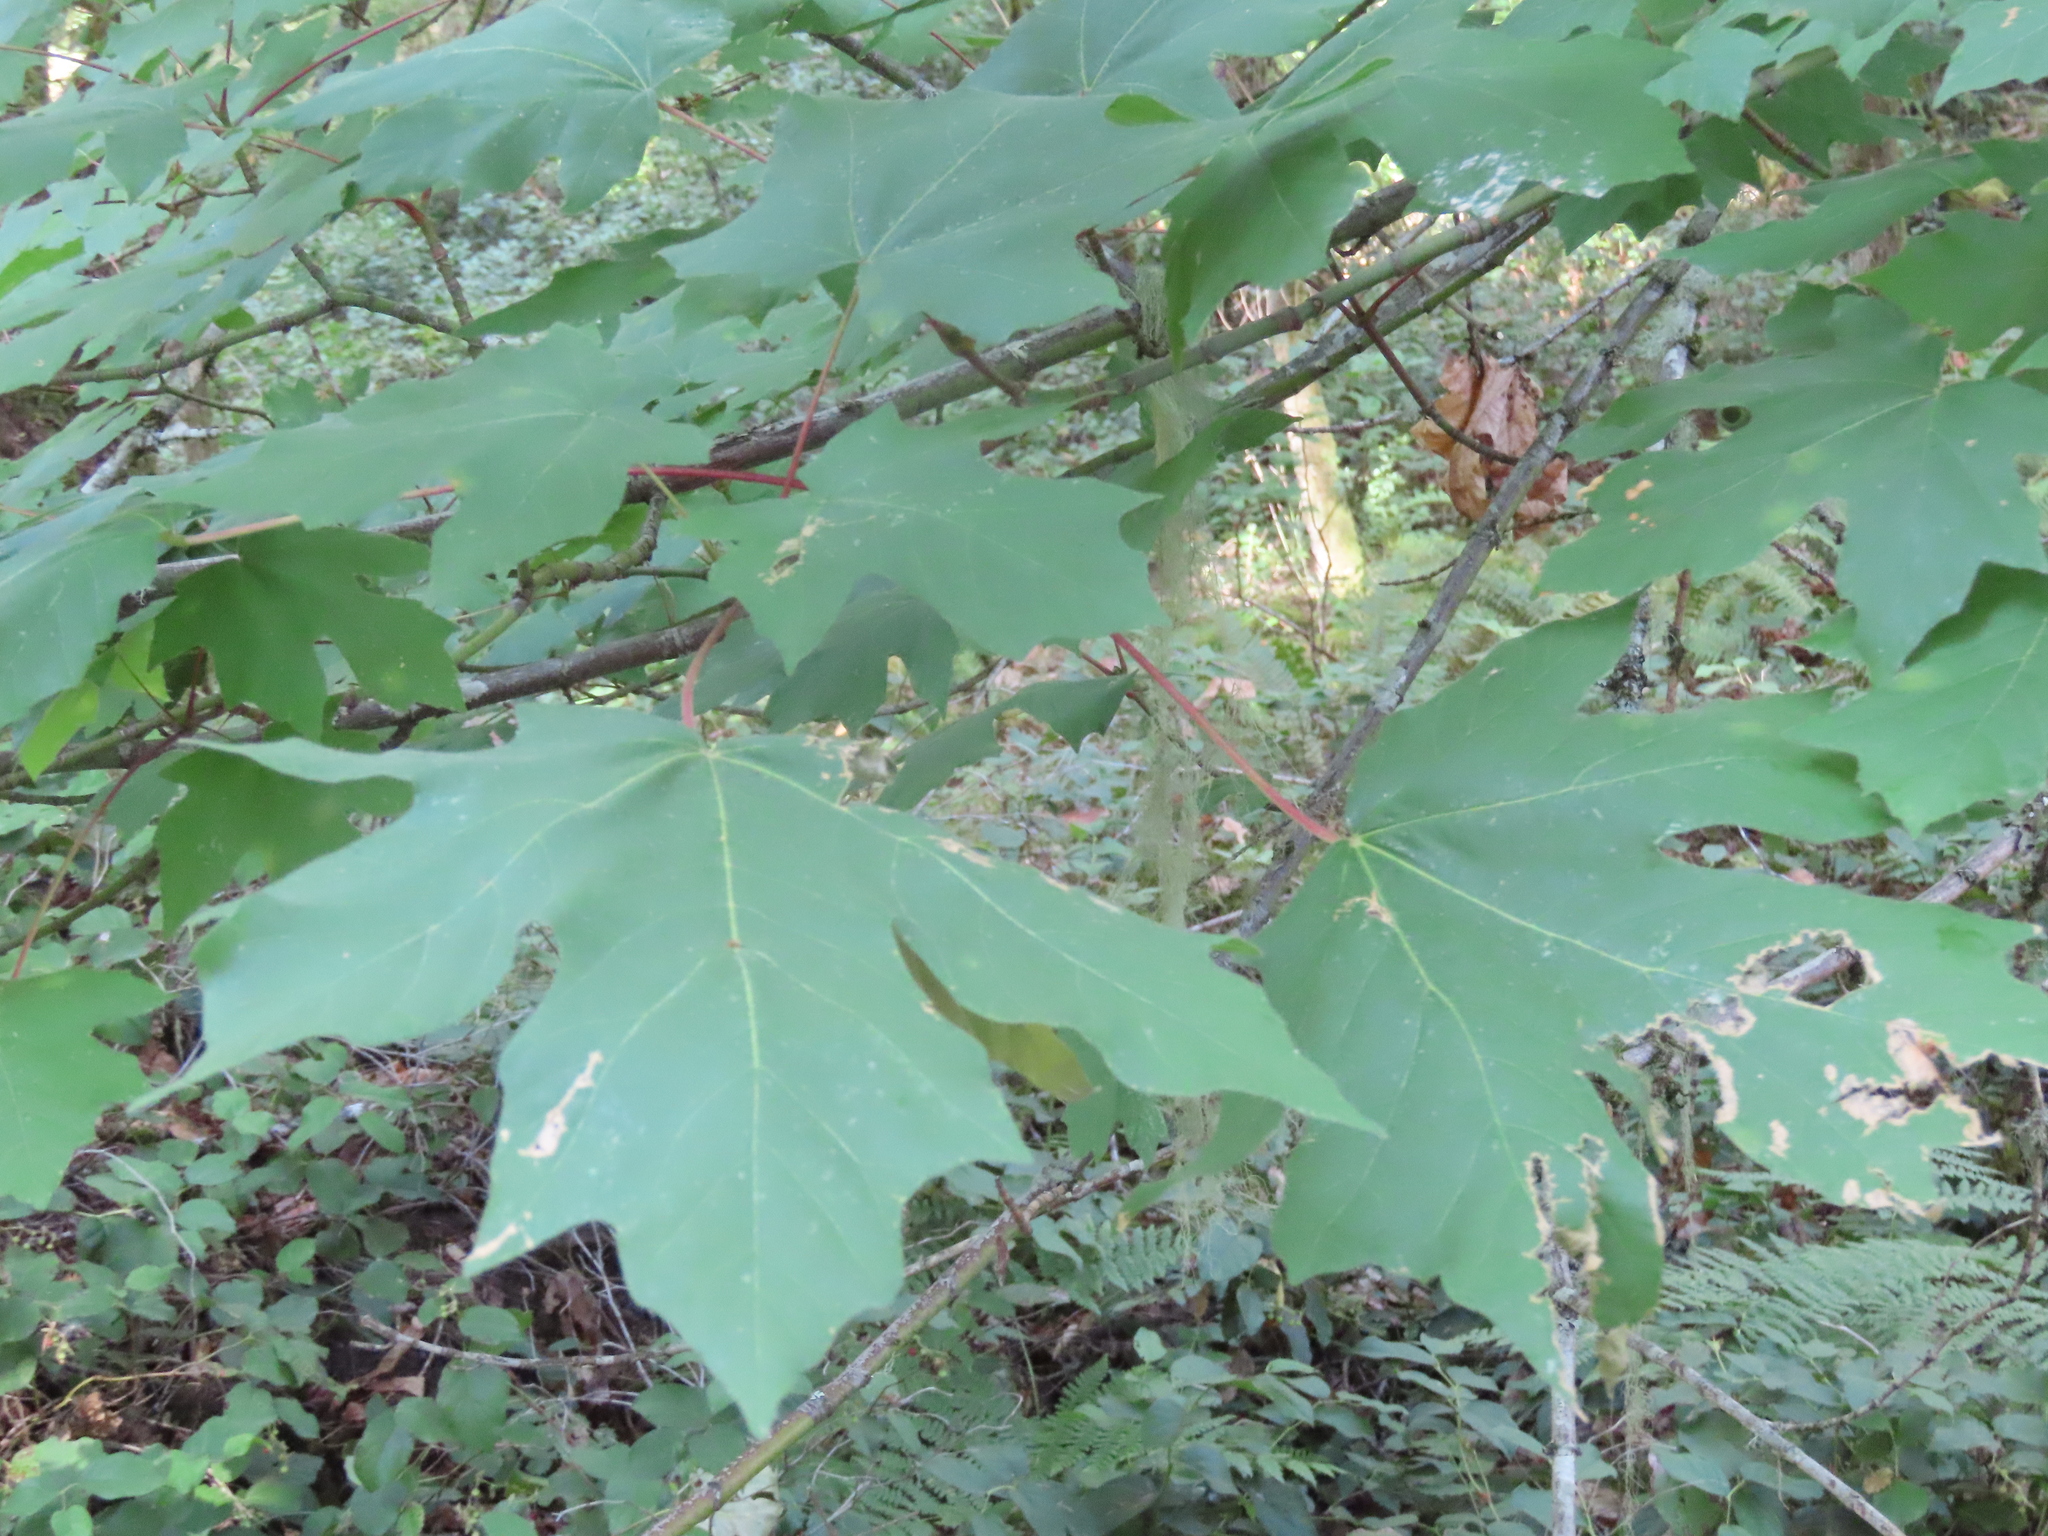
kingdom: Plantae
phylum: Tracheophyta
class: Magnoliopsida
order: Sapindales
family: Sapindaceae
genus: Acer
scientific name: Acer macrophyllum
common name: Oregon maple
